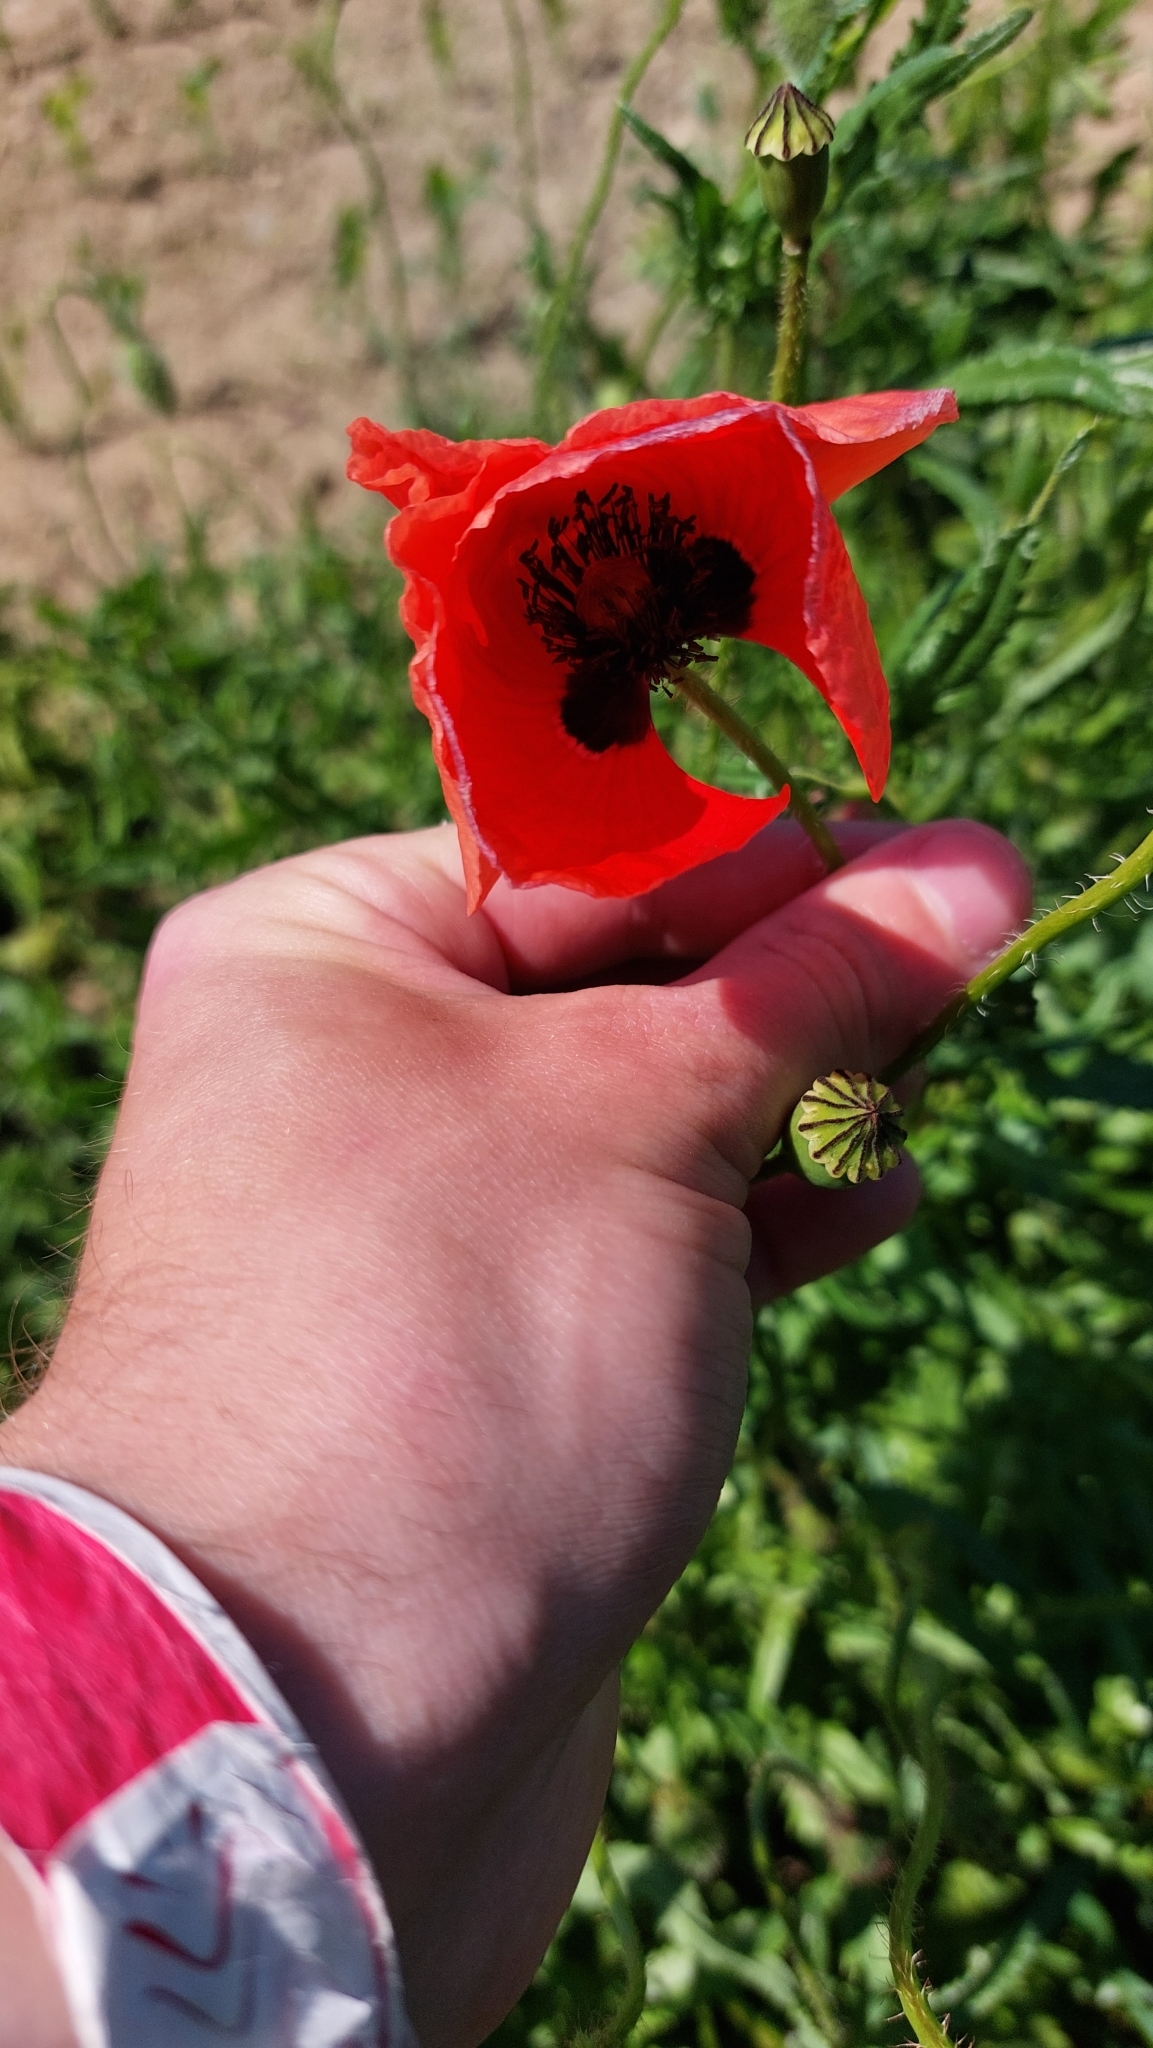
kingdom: Plantae
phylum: Tracheophyta
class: Magnoliopsida
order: Ranunculales
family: Papaveraceae
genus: Papaver
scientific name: Papaver rhoeas
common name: Corn poppy
